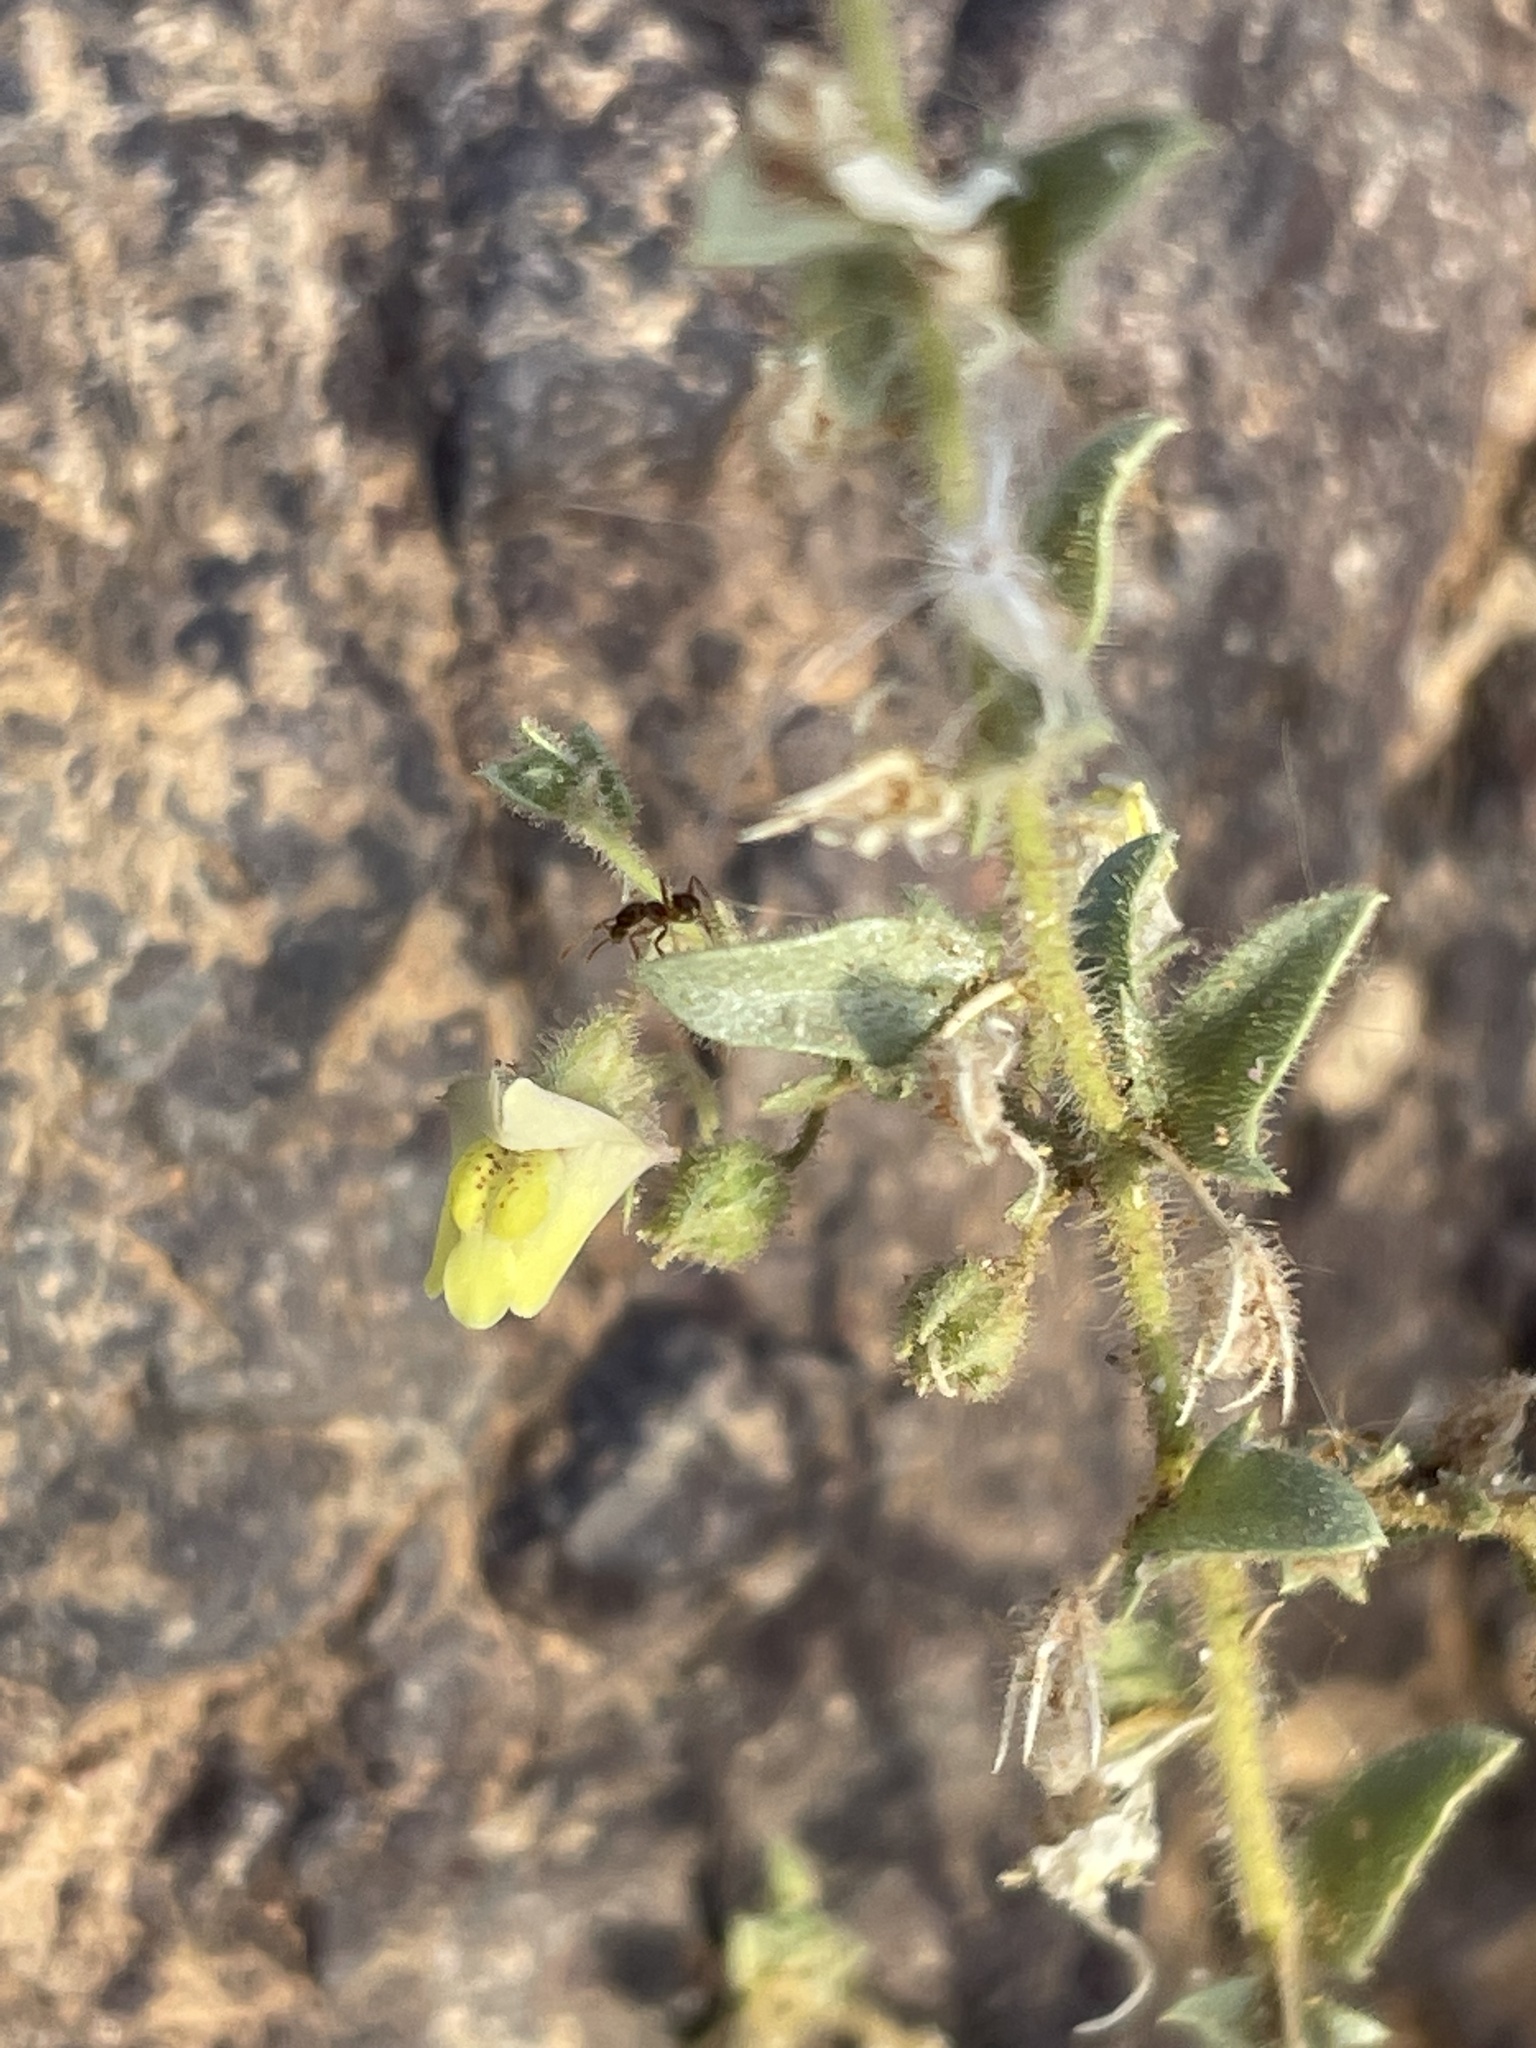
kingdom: Plantae
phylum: Tracheophyta
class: Magnoliopsida
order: Lamiales
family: Plantaginaceae
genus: Kickxia
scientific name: Kickxia aegyptiaca
